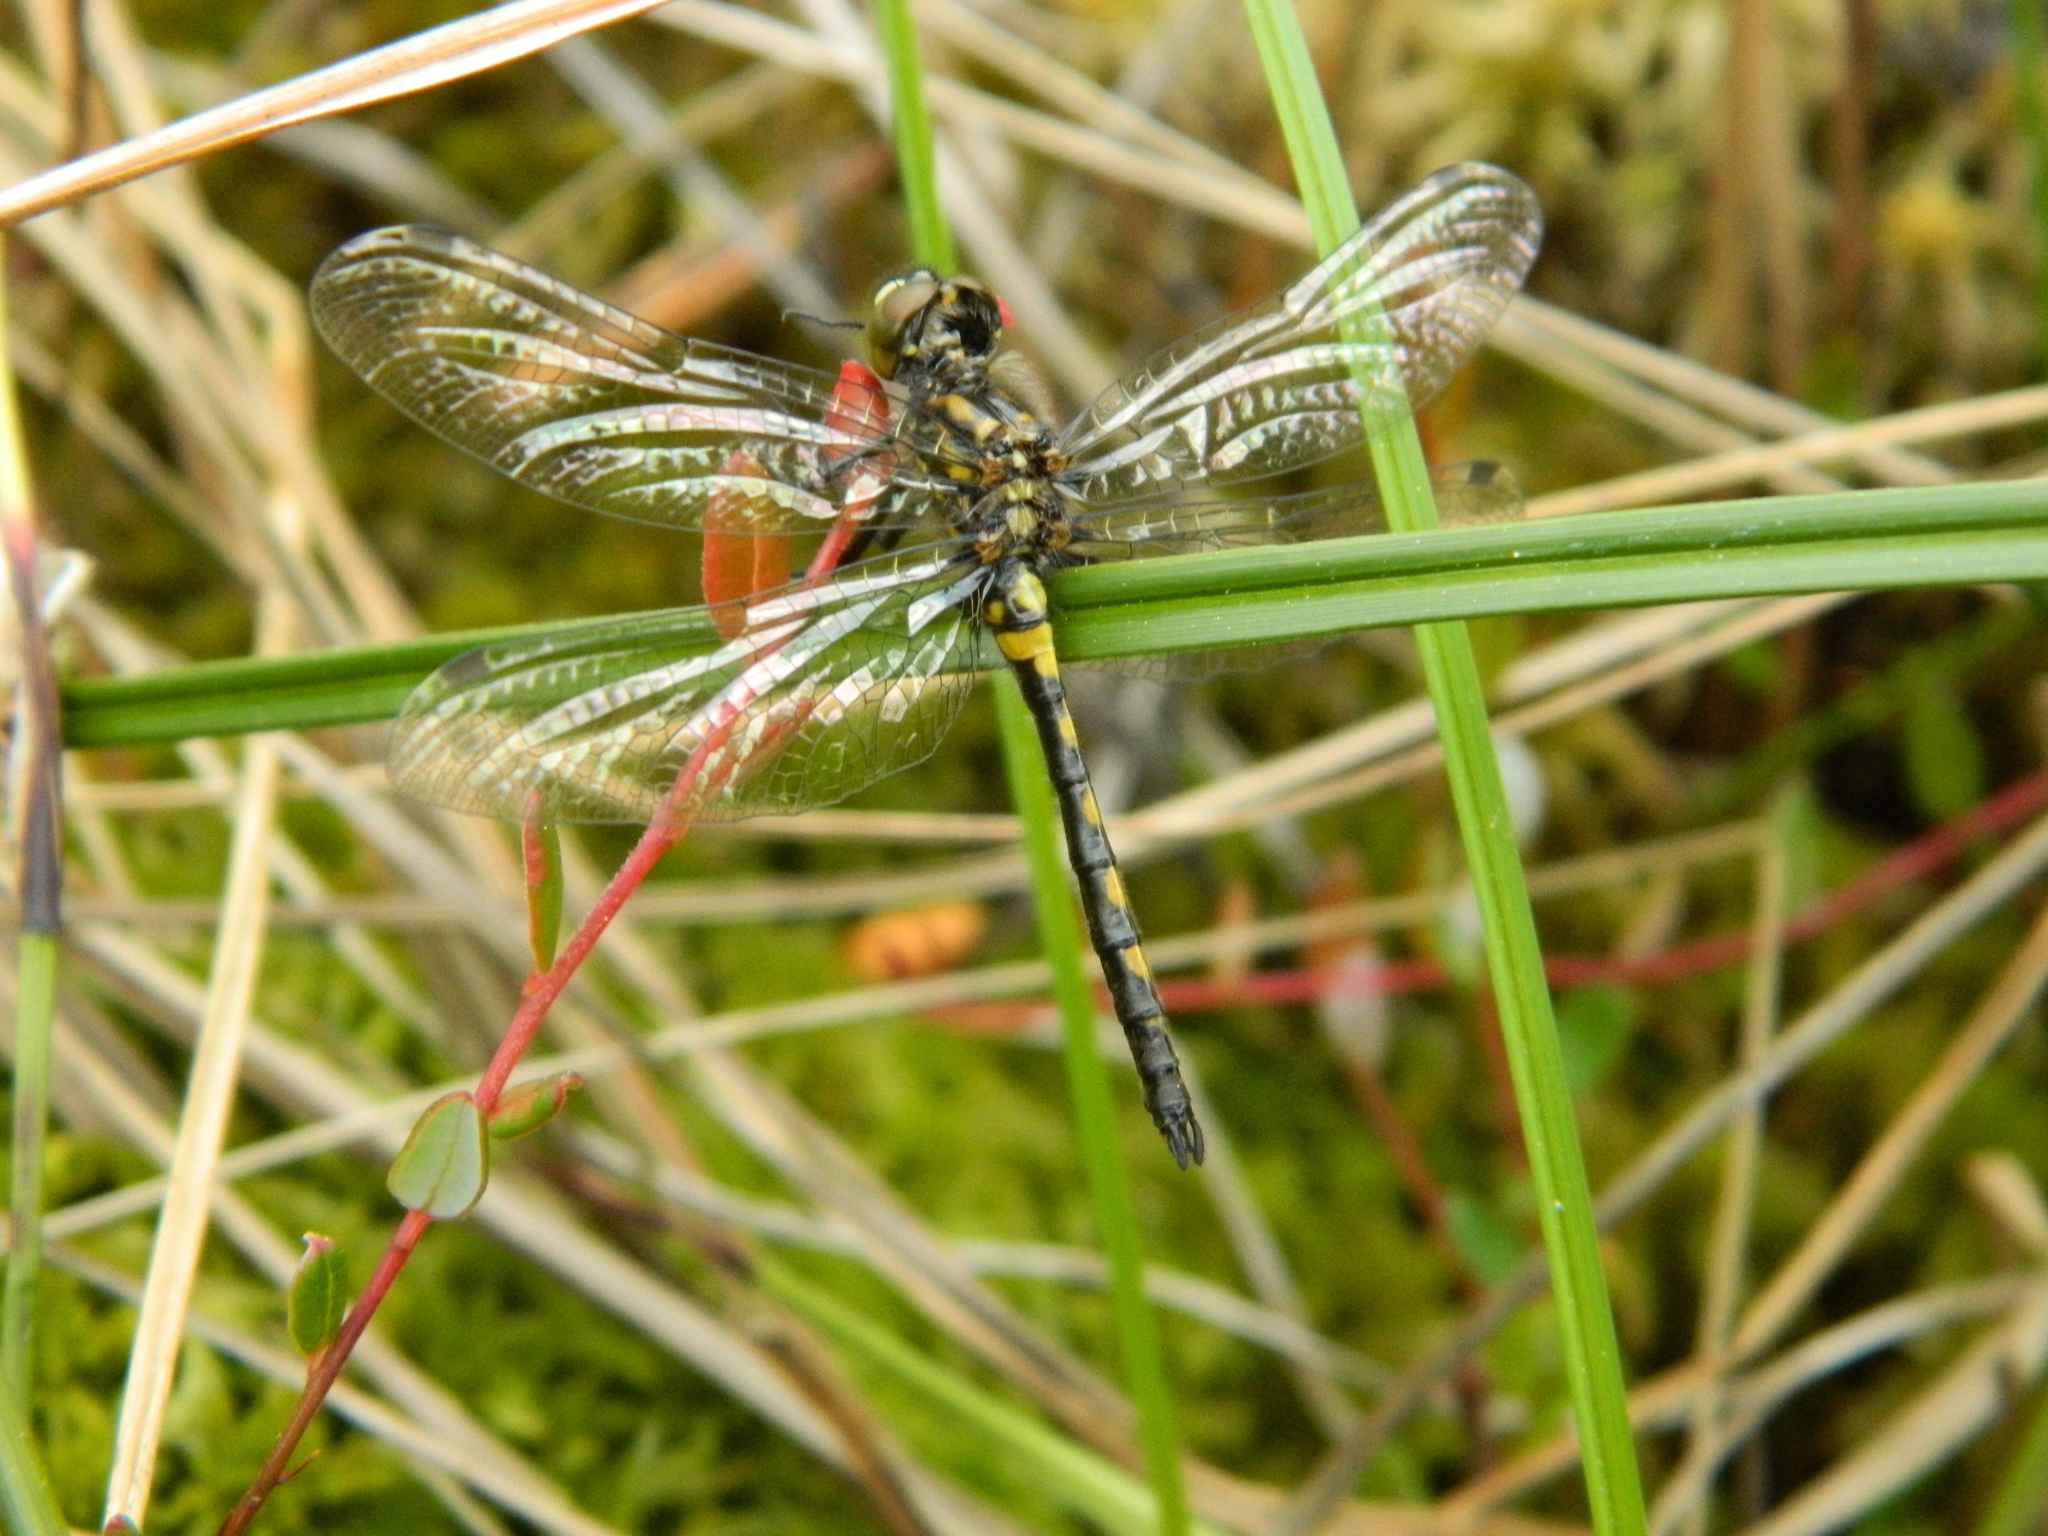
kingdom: Animalia
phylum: Arthropoda
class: Insecta
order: Odonata
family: Libellulidae
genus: Leucorrhinia
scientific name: Leucorrhinia hudsonica
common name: Hudsonian whiteface
